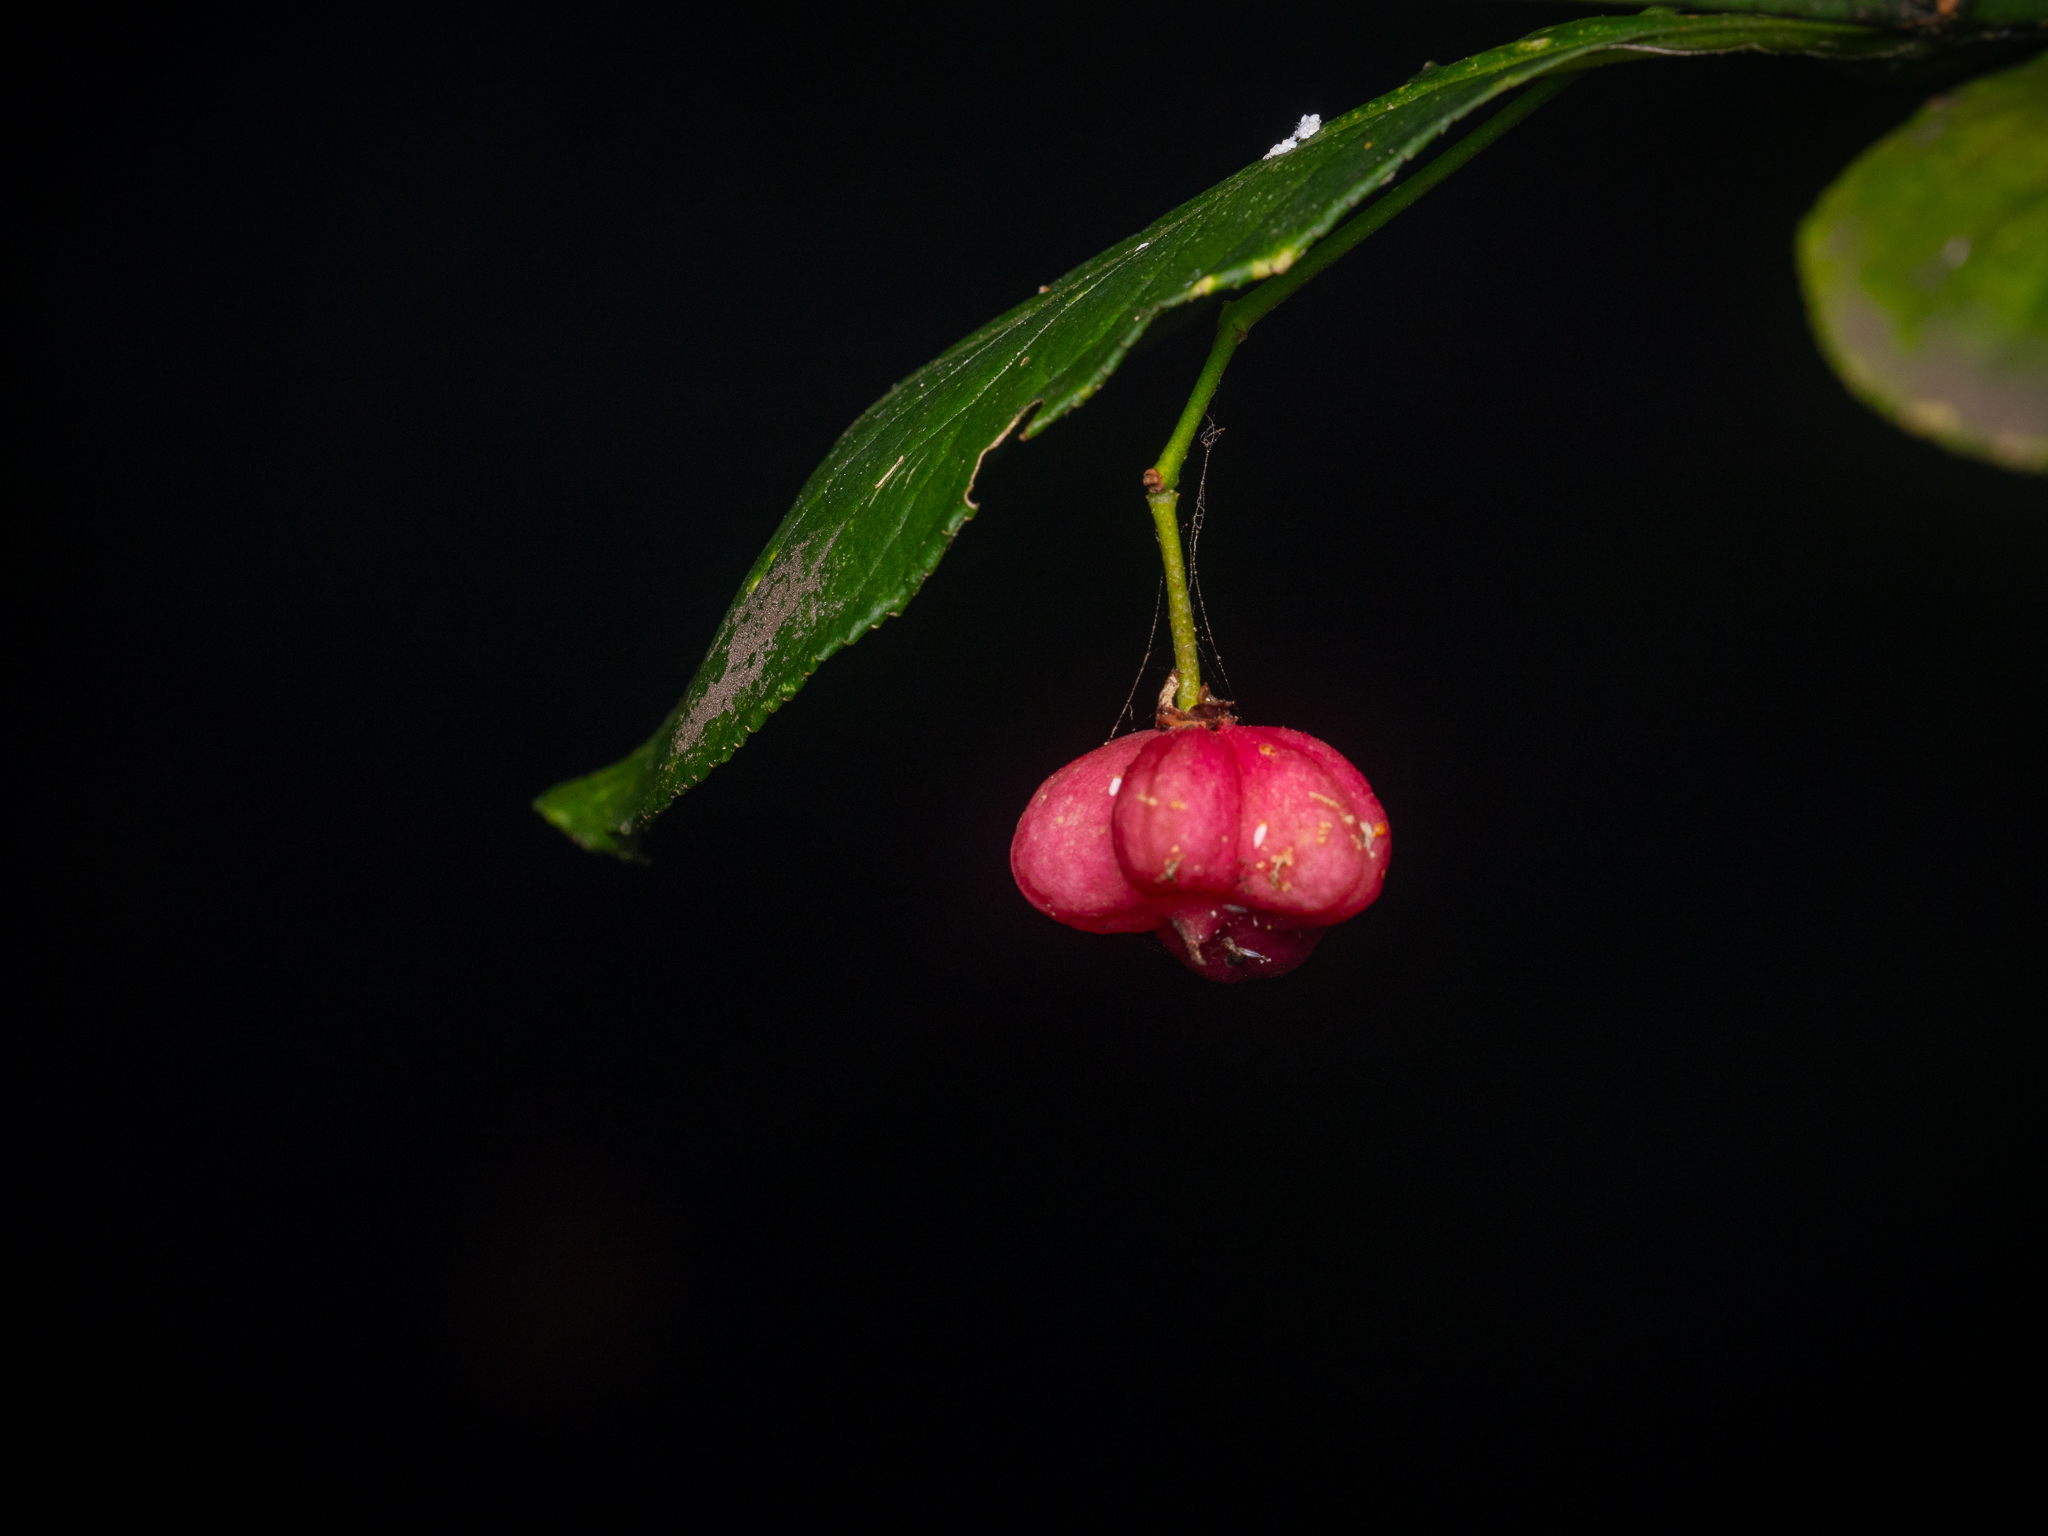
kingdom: Plantae
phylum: Tracheophyta
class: Magnoliopsida
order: Celastrales
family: Celastraceae
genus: Euonymus
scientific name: Euonymus europaeus
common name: Spindle
